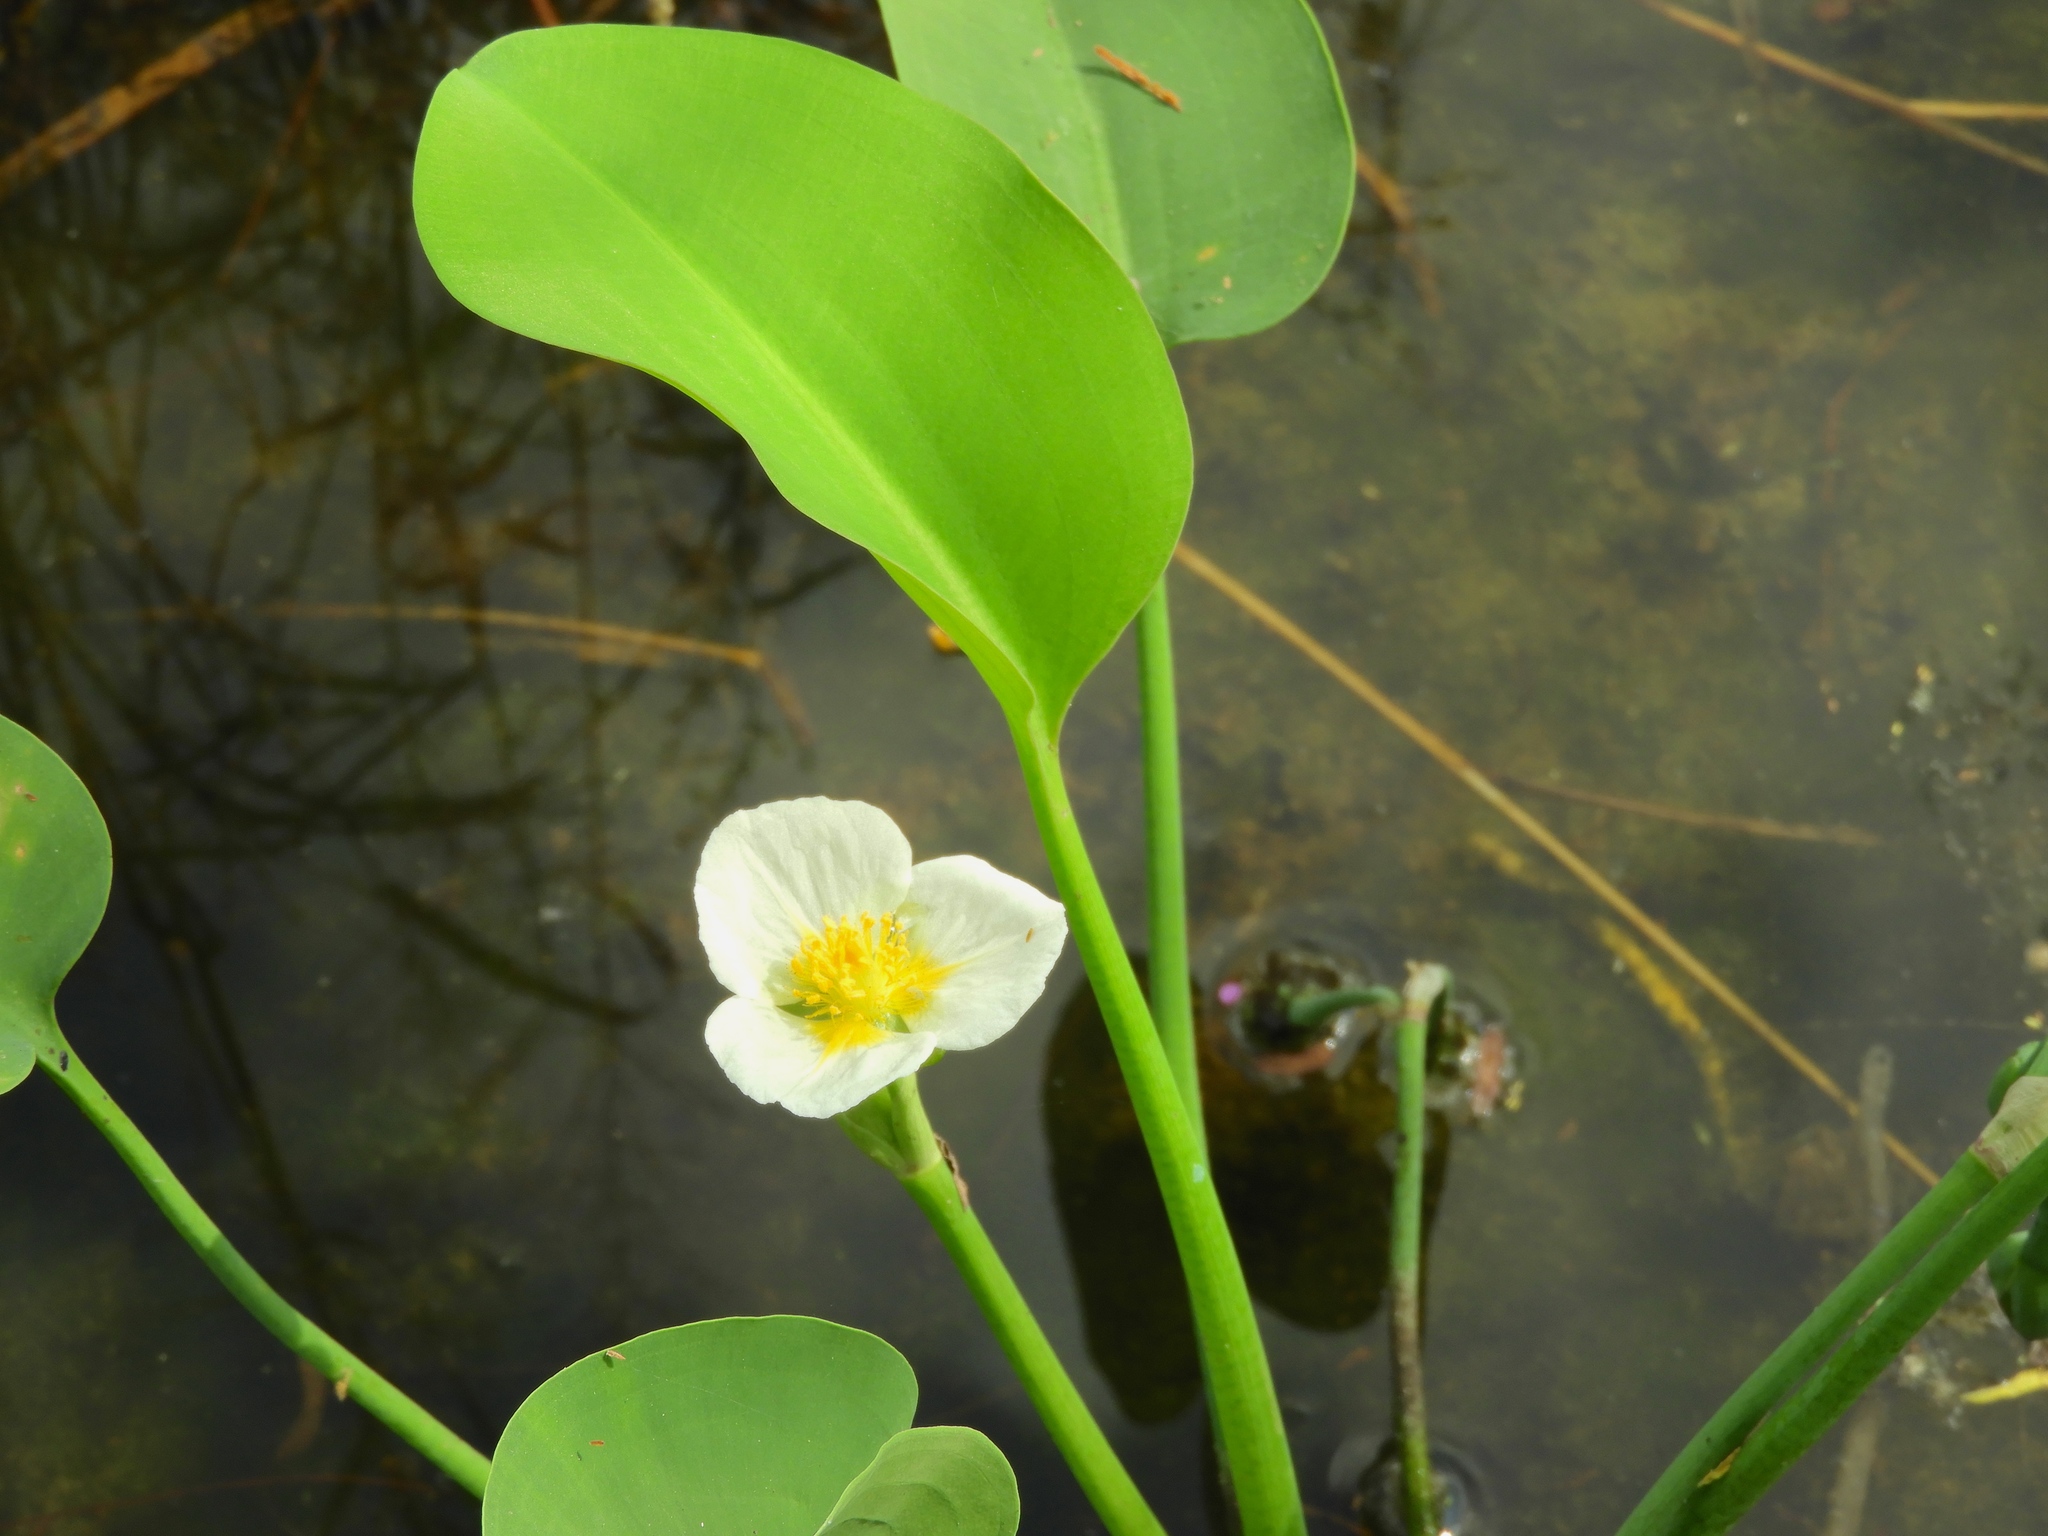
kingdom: Plantae
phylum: Tracheophyta
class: Liliopsida
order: Alismatales
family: Alismataceae
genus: Limnocharis
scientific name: Limnocharis flava
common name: Sawah-flower-rush
